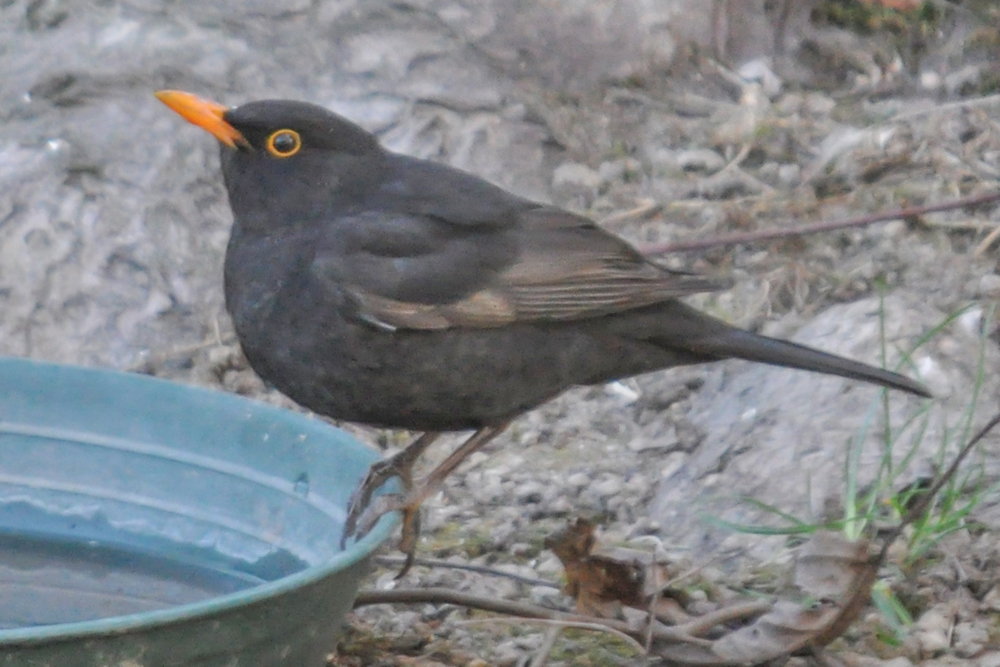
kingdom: Animalia
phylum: Chordata
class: Aves
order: Passeriformes
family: Turdidae
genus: Turdus
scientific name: Turdus merula
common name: Common blackbird
